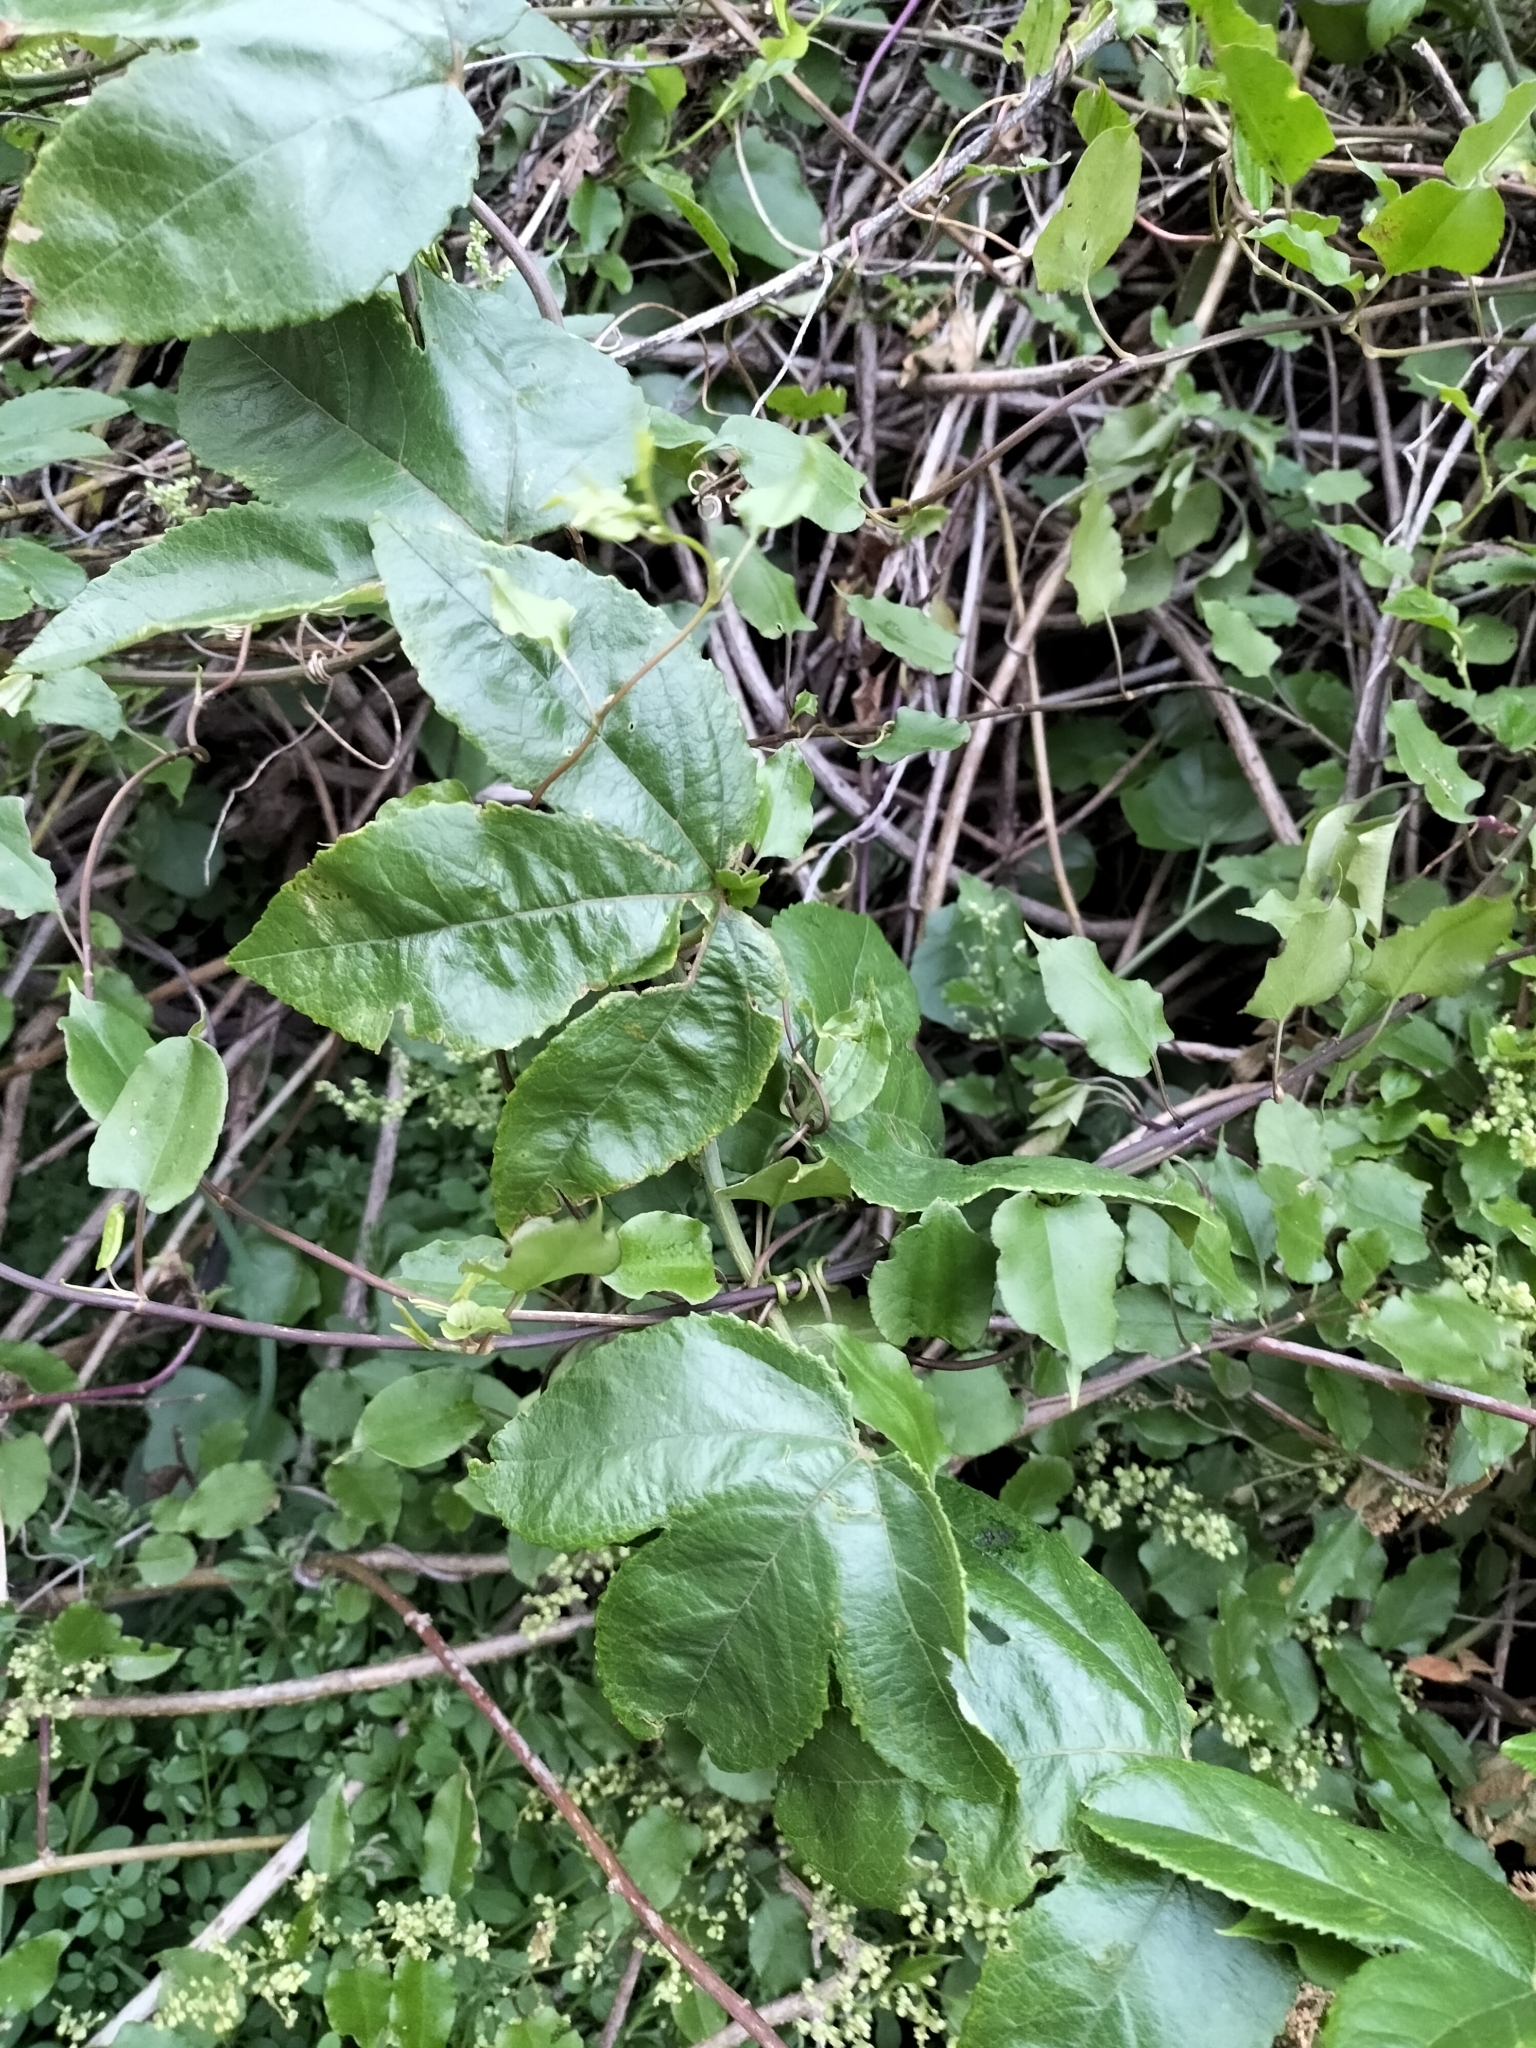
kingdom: Plantae
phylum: Tracheophyta
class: Magnoliopsida
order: Malpighiales
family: Passifloraceae
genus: Passiflora
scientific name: Passiflora tarminiana
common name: Banana poka
